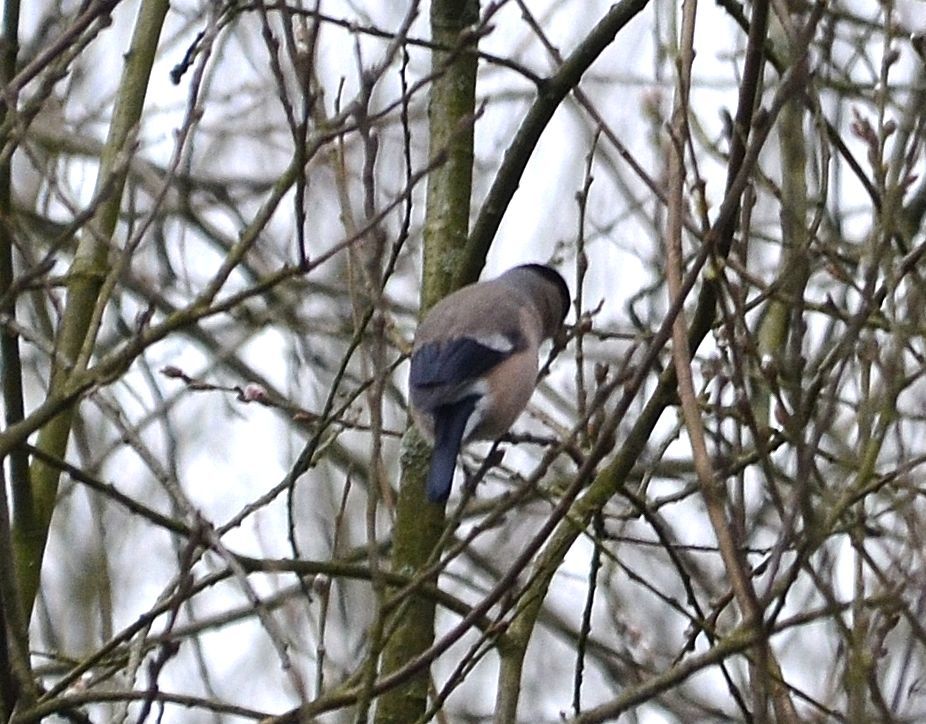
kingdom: Animalia
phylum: Chordata
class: Aves
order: Passeriformes
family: Fringillidae
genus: Pyrrhula
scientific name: Pyrrhula pyrrhula
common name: Eurasian bullfinch
